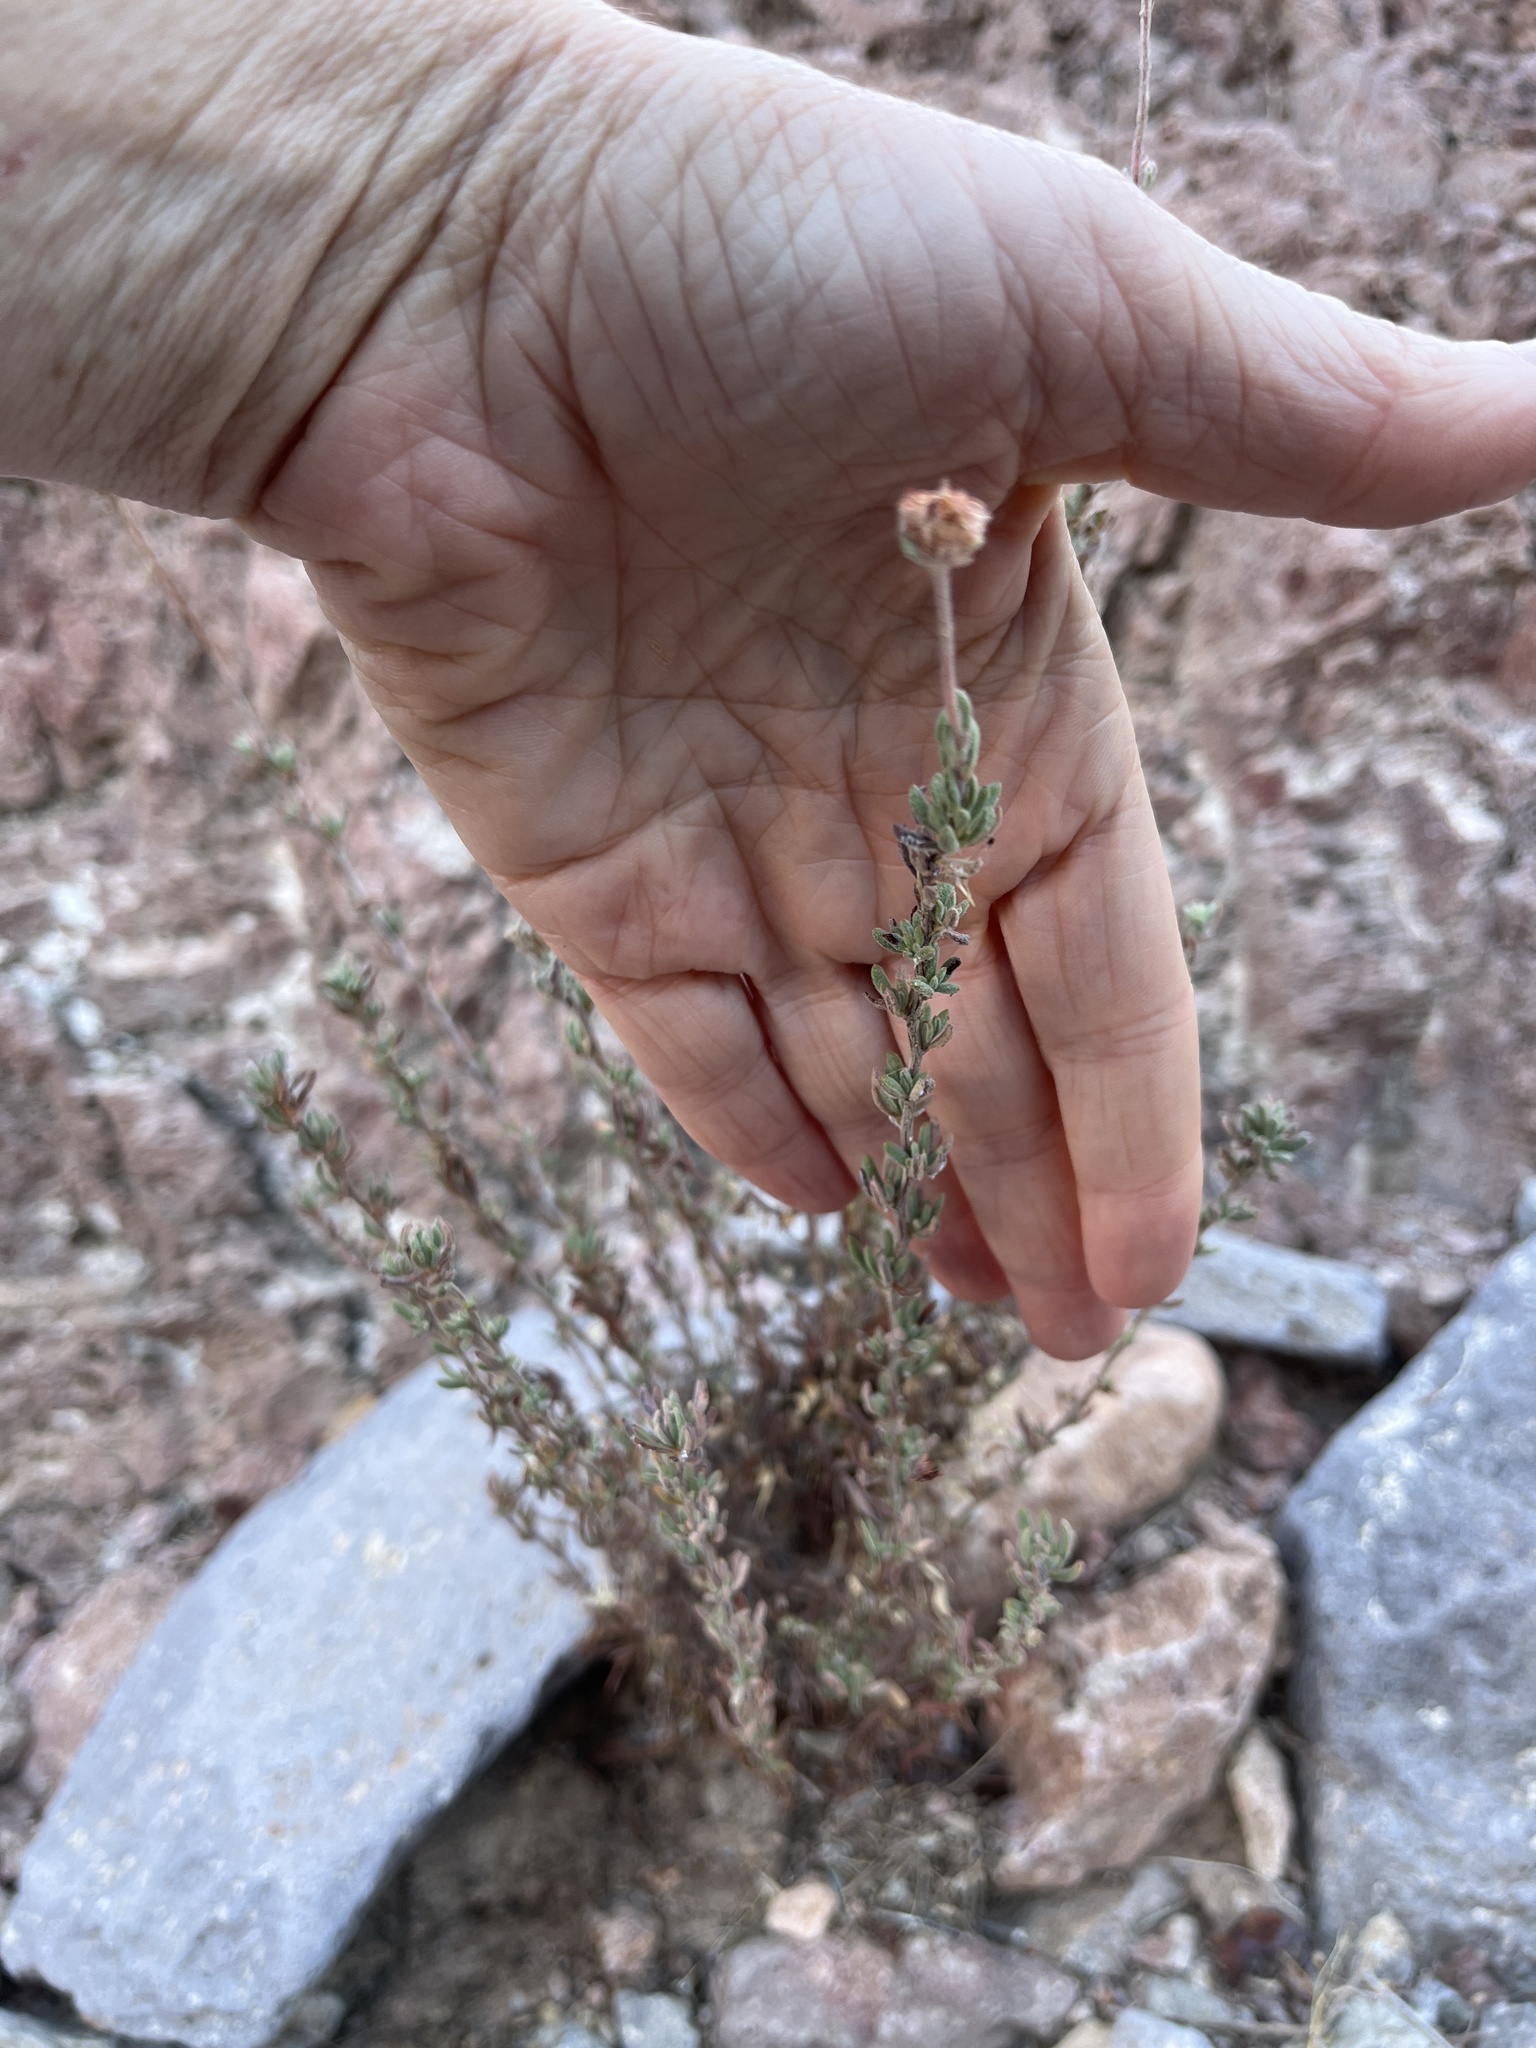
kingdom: Plantae
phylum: Tracheophyta
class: Magnoliopsida
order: Caryophyllales
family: Polygonaceae
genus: Eriogonum
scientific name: Eriogonum fasciculatum
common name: California wild buckwheat
